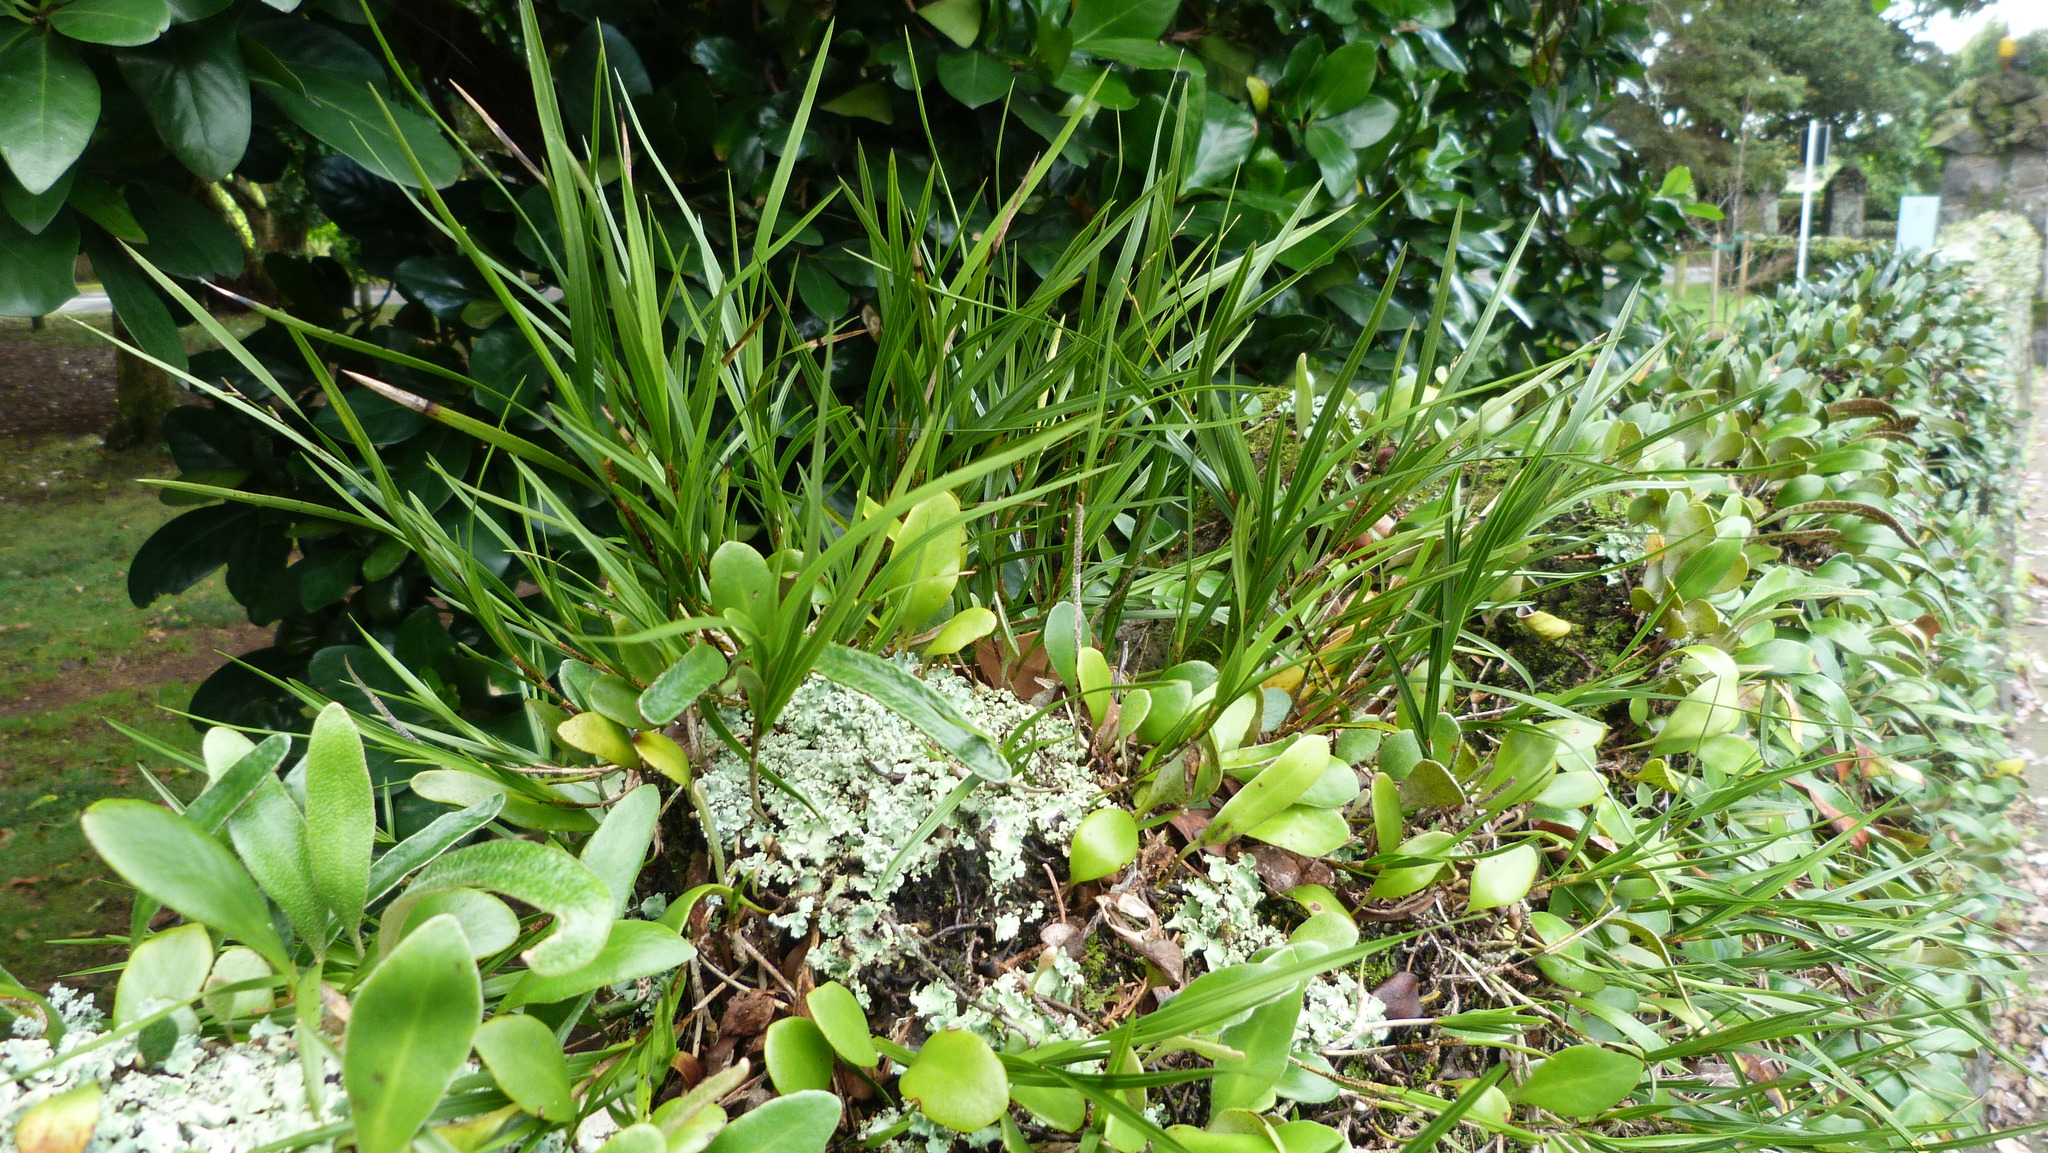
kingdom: Plantae
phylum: Tracheophyta
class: Liliopsida
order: Asparagales
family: Orchidaceae
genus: Earina
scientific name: Earina mucronata
